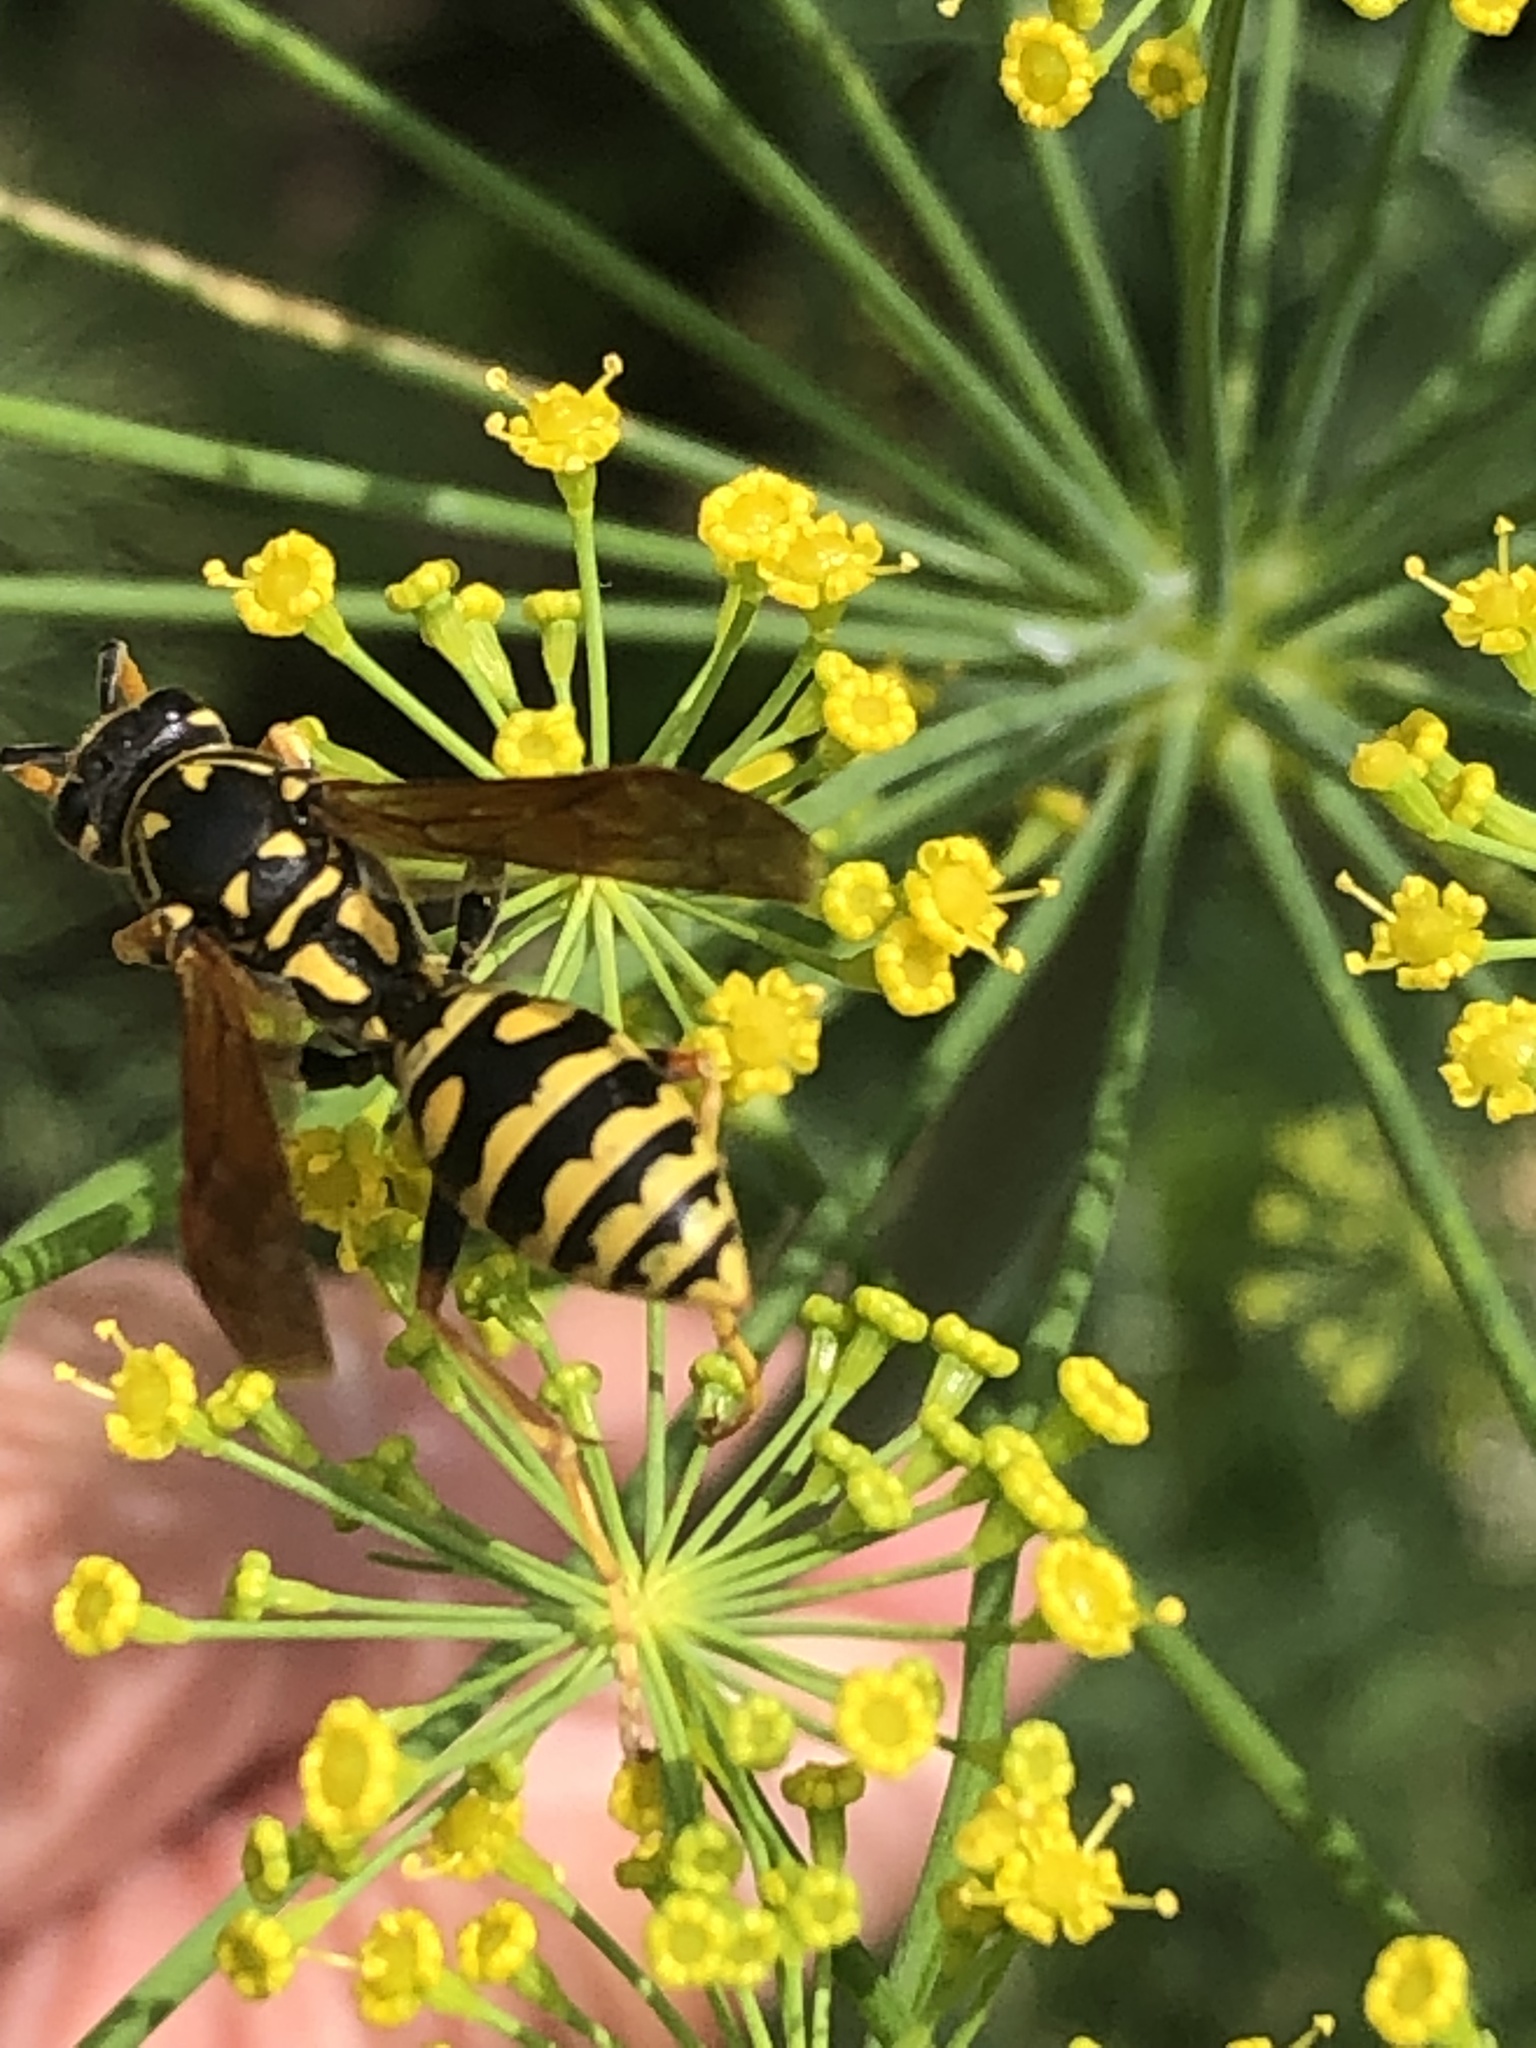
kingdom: Animalia
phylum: Arthropoda
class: Insecta
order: Hymenoptera
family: Eumenidae
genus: Polistes
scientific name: Polistes dominula
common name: Paper wasp
